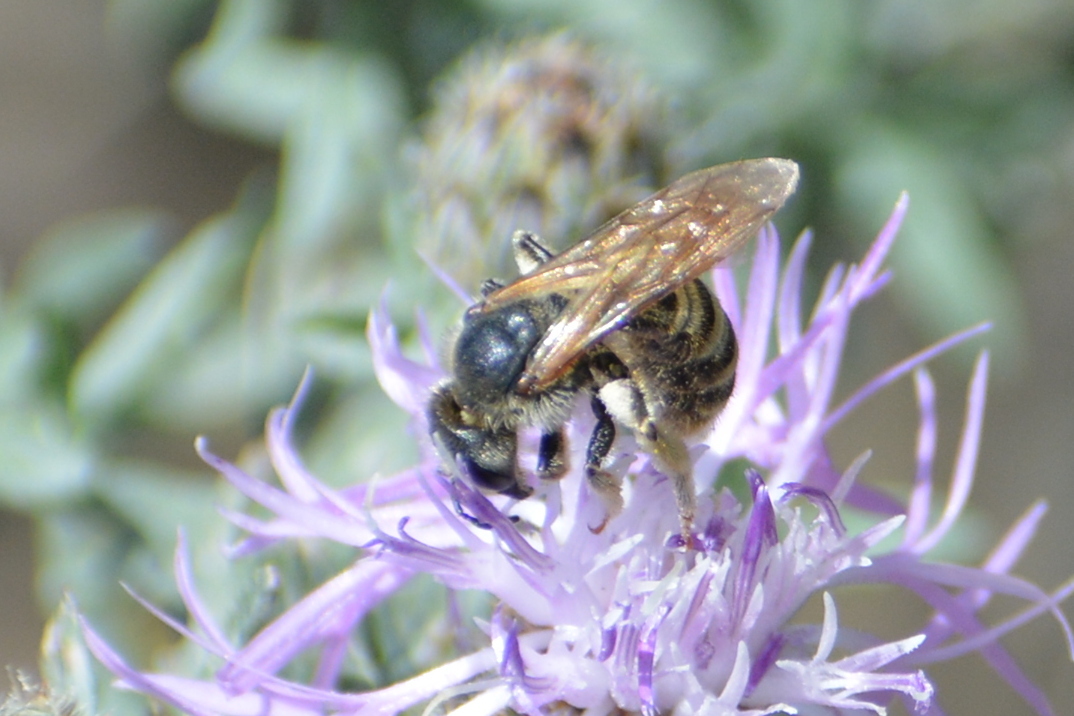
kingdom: Animalia
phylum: Arthropoda
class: Insecta
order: Hymenoptera
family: Halictidae
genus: Halictus
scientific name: Halictus scabiosae
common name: Great banded furrow bee
